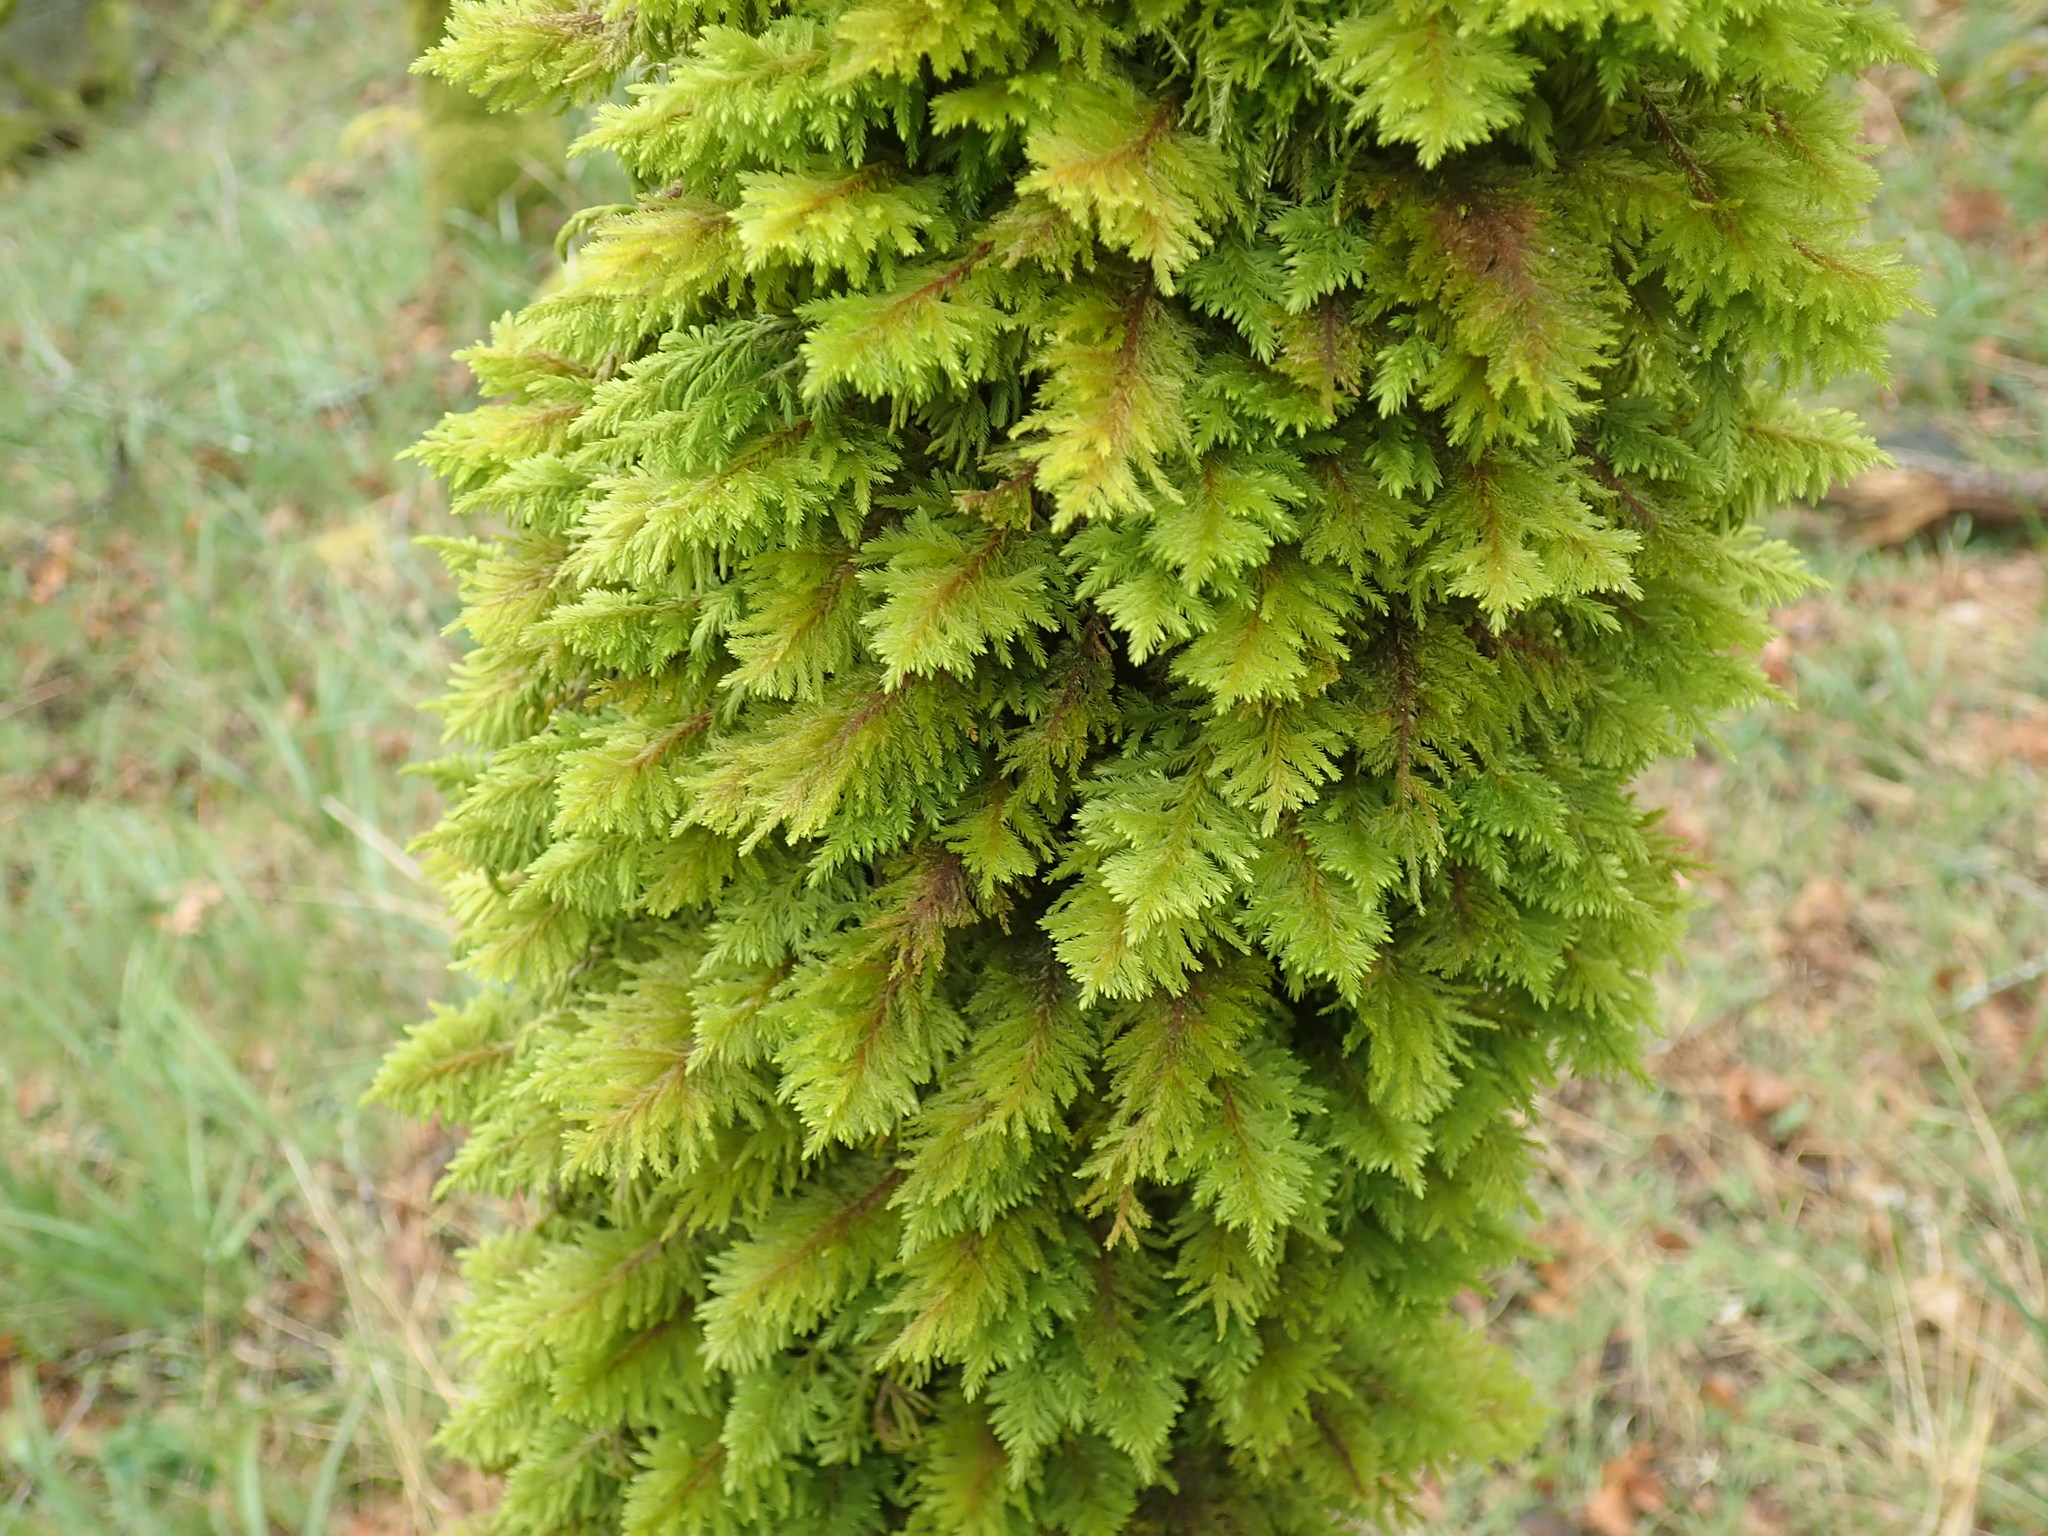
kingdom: Plantae
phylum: Bryophyta
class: Bryopsida
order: Hypnales
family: Cryphaeaceae
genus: Dendroalsia
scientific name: Dendroalsia abietina
